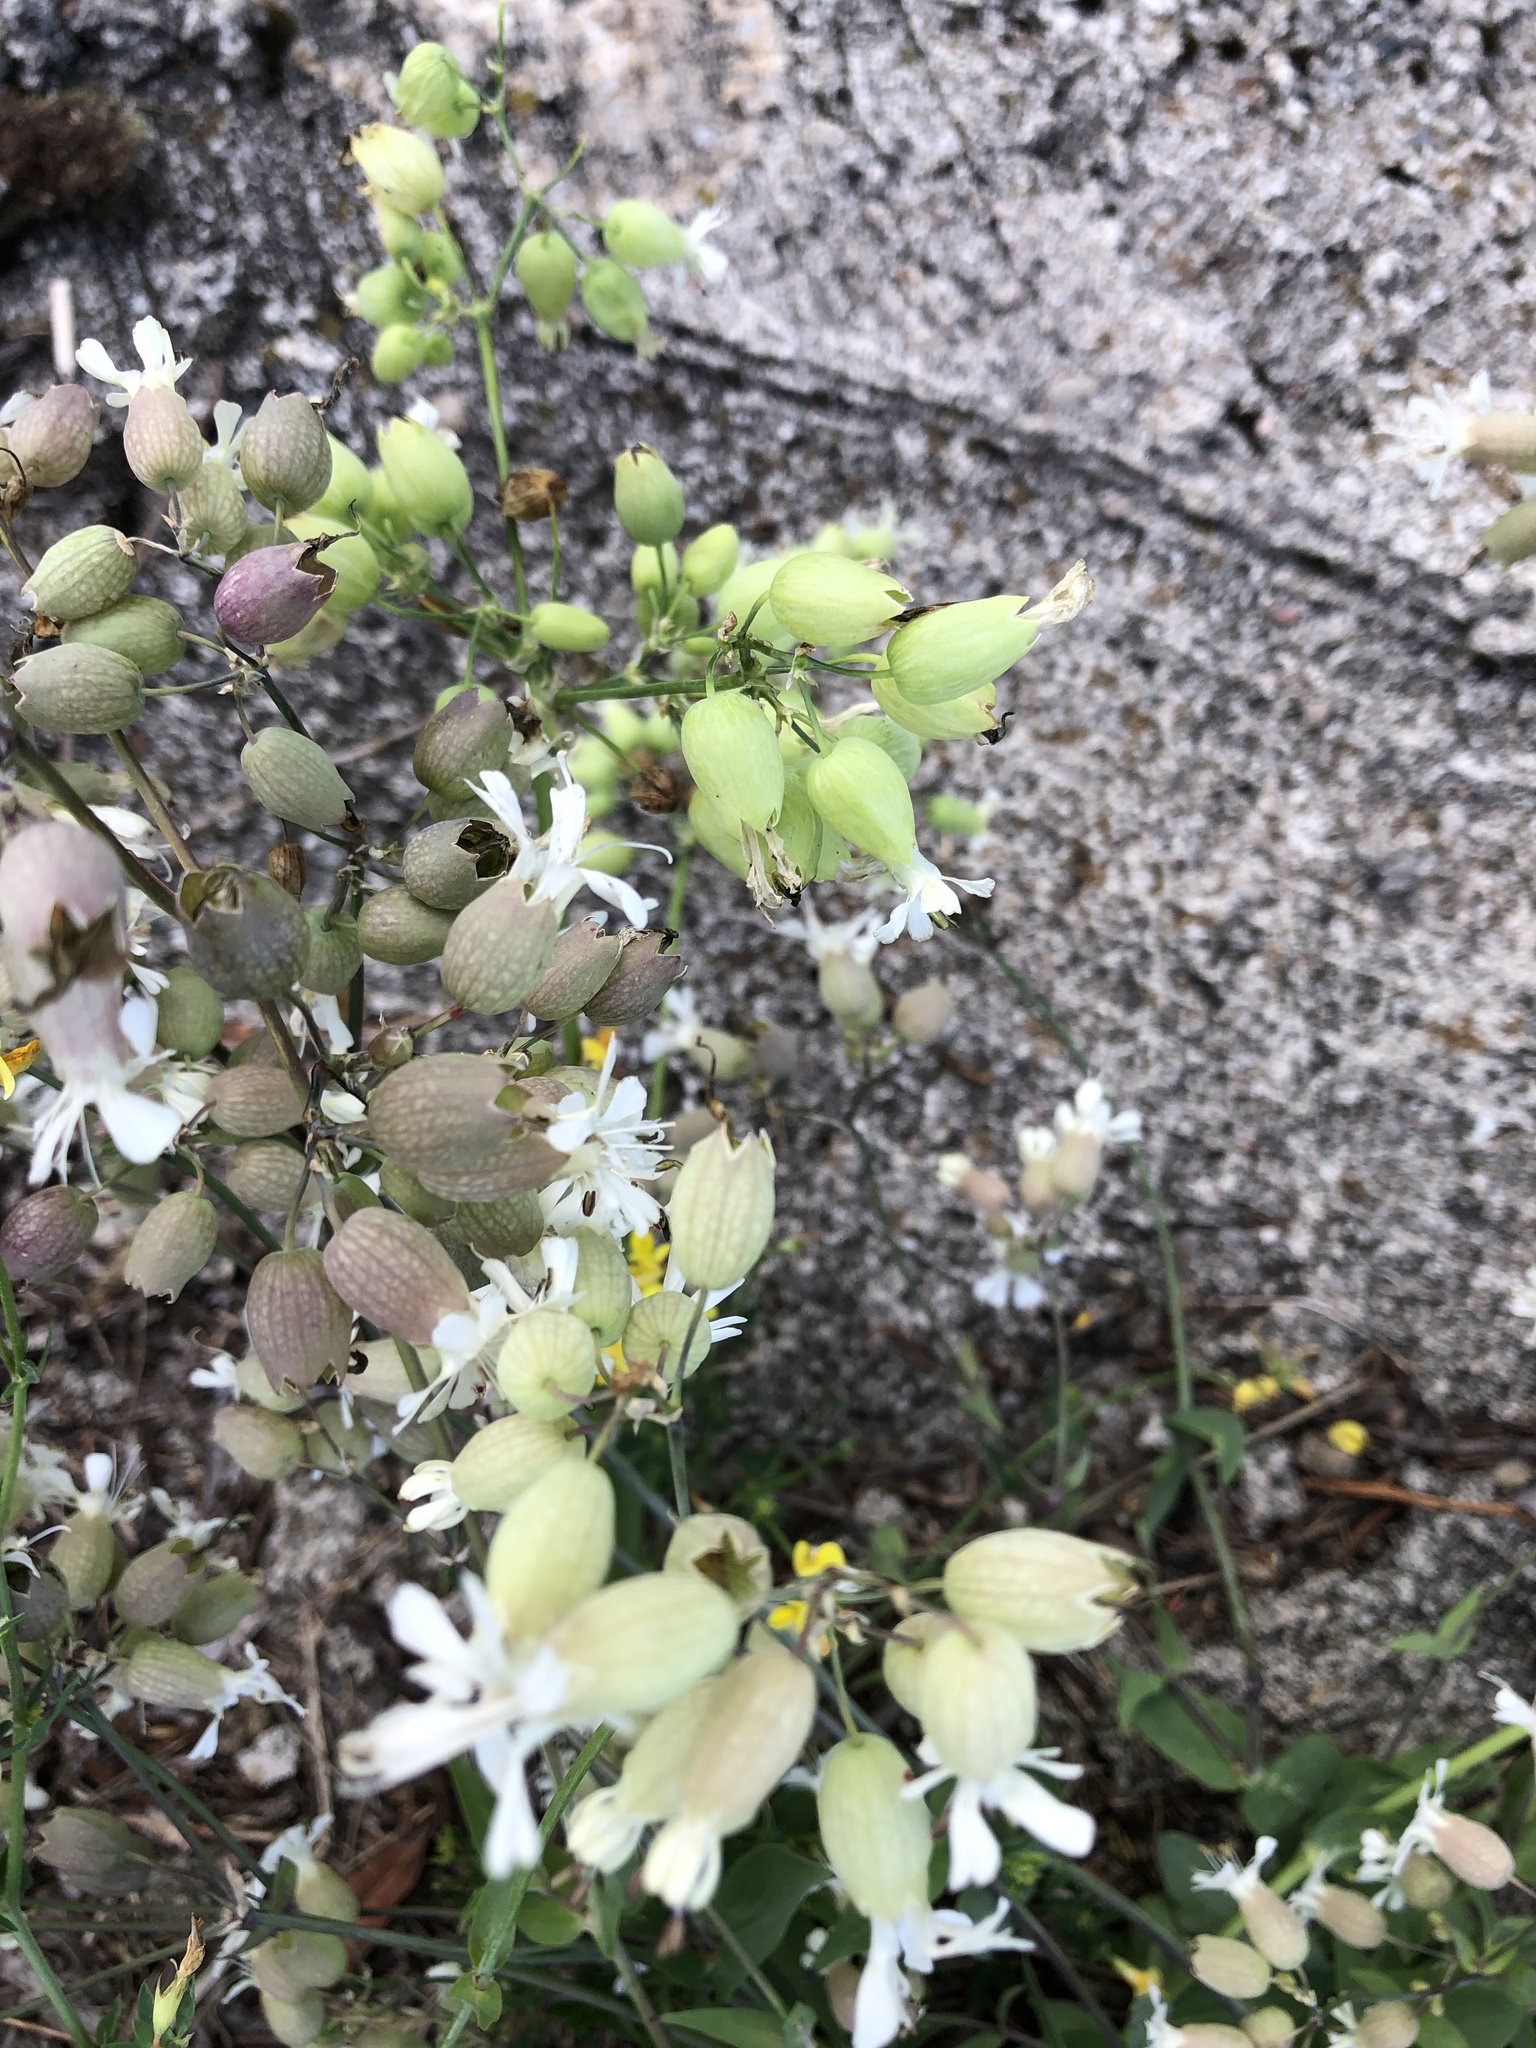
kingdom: Plantae
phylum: Tracheophyta
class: Magnoliopsida
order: Caryophyllales
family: Caryophyllaceae
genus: Silene
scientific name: Silene vulgaris
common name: Bladder campion
